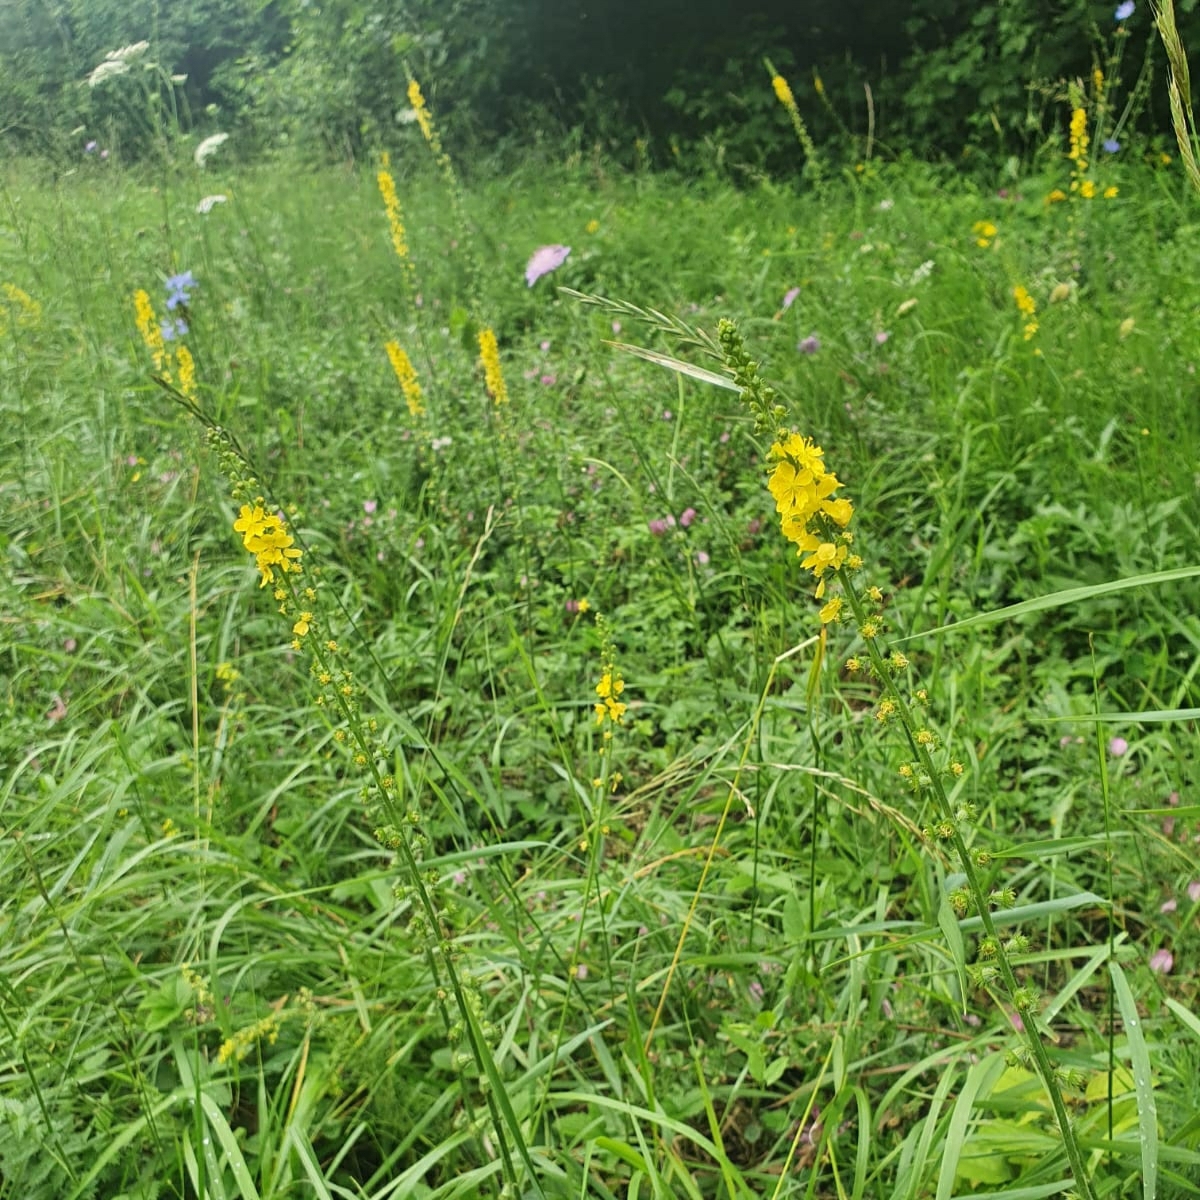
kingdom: Plantae
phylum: Tracheophyta
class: Magnoliopsida
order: Rosales
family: Rosaceae
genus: Agrimonia
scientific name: Agrimonia eupatoria
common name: Agrimony
